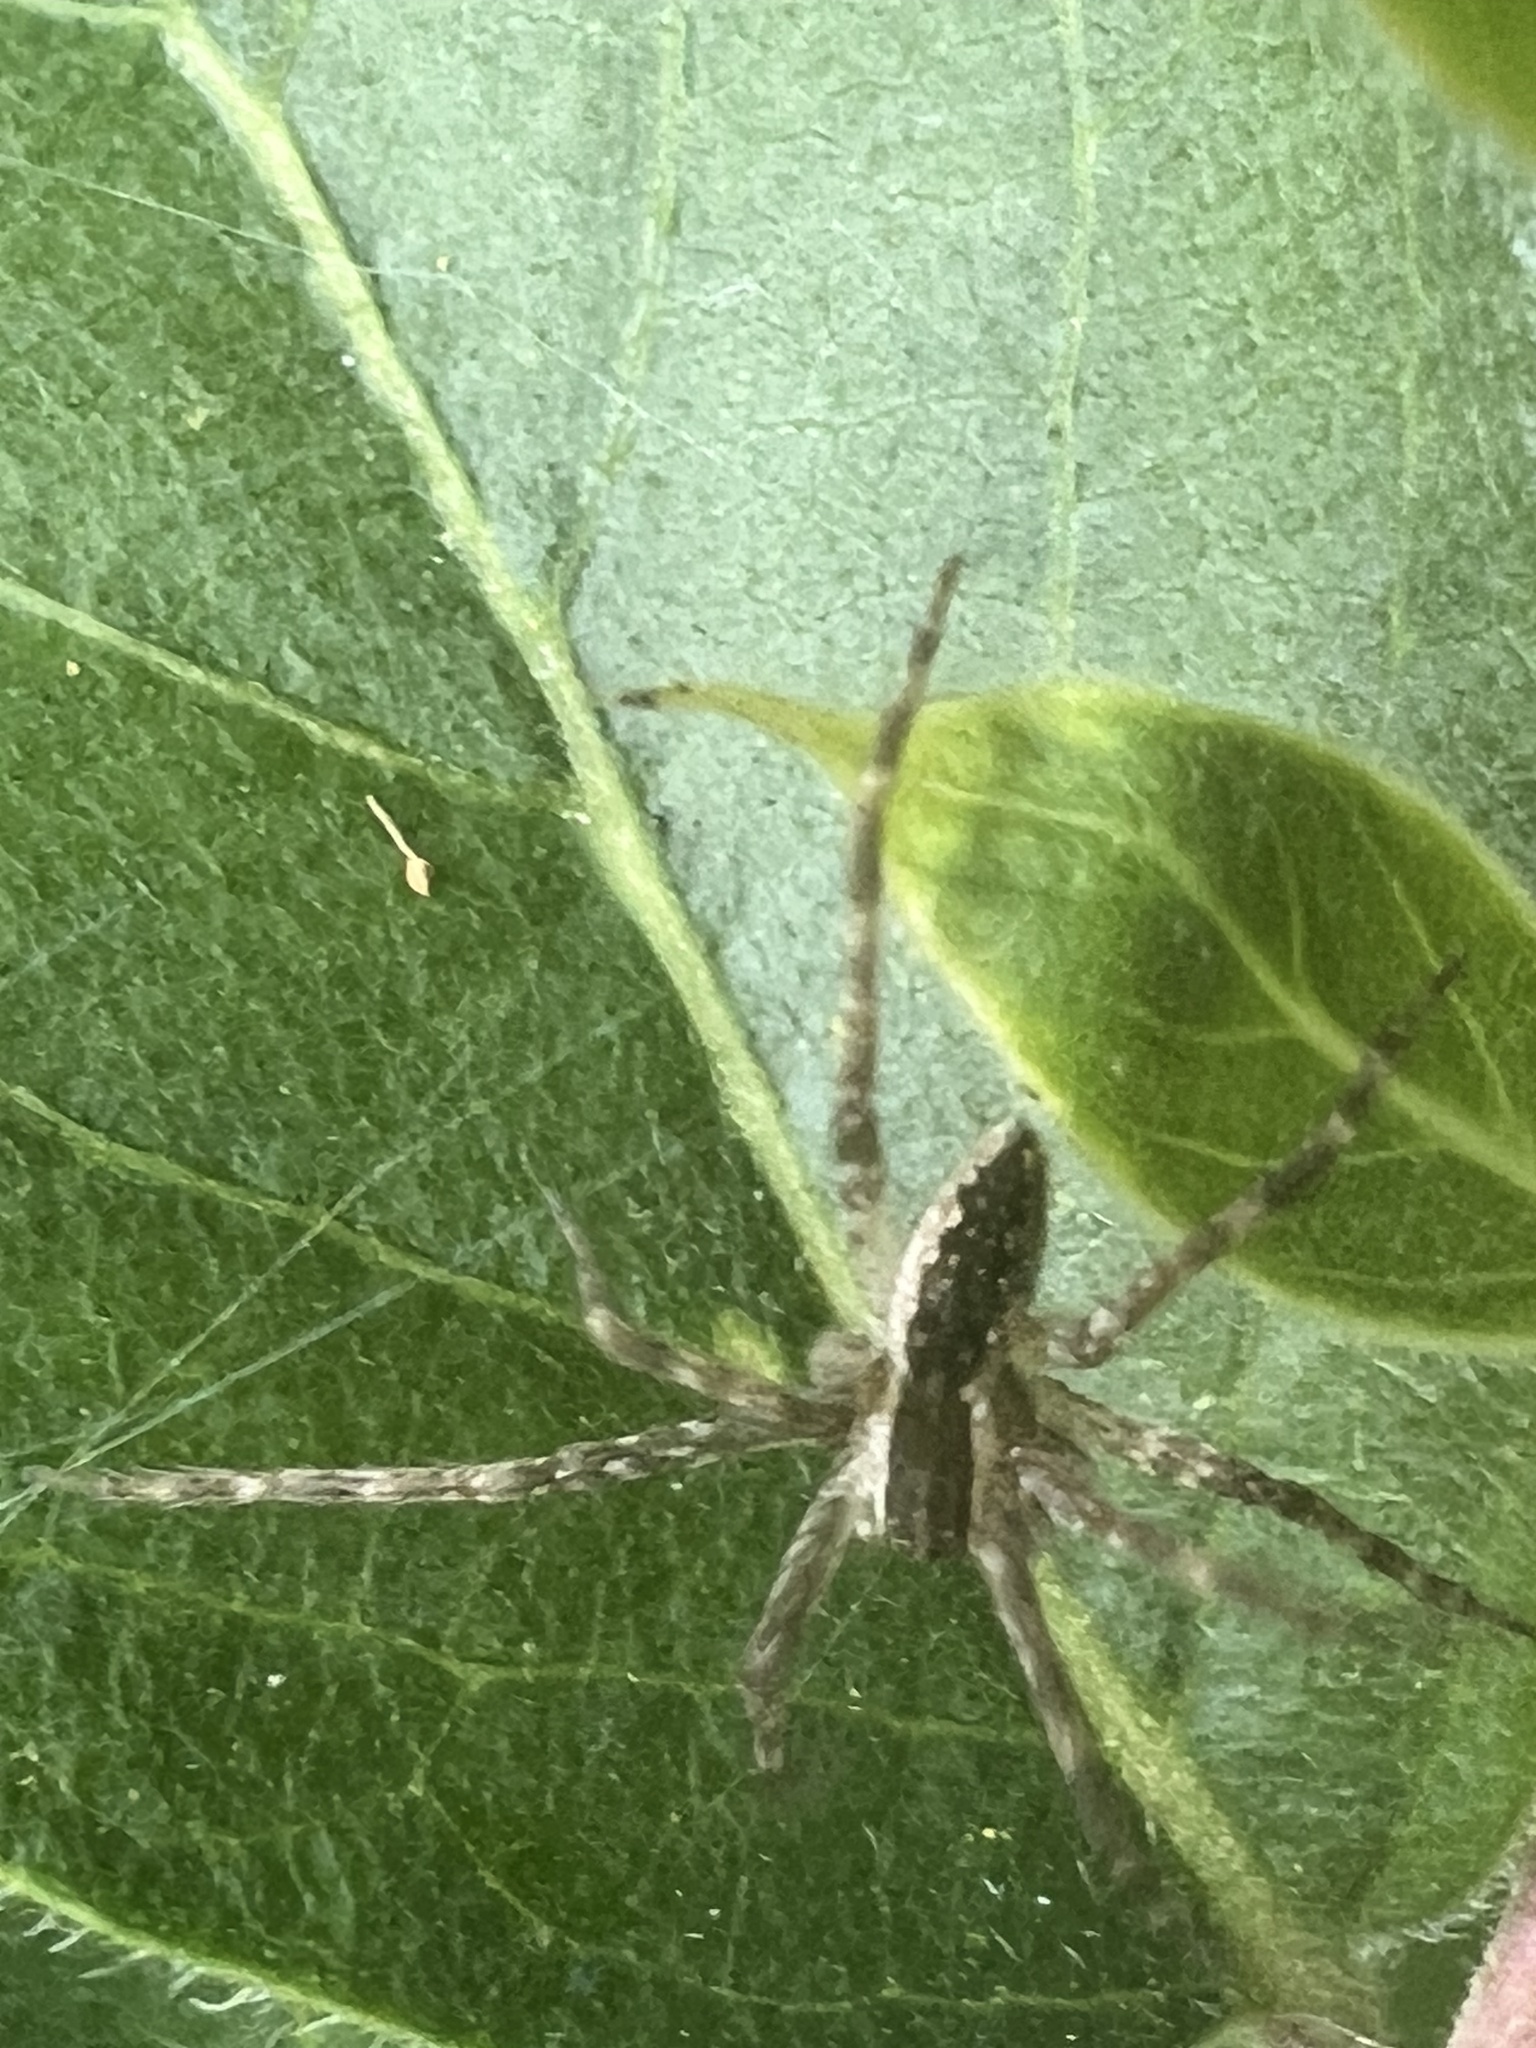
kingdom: Animalia
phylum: Arthropoda
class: Arachnida
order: Araneae
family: Pisauridae
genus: Pisaurina
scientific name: Pisaurina mira
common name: American nursery web spider
